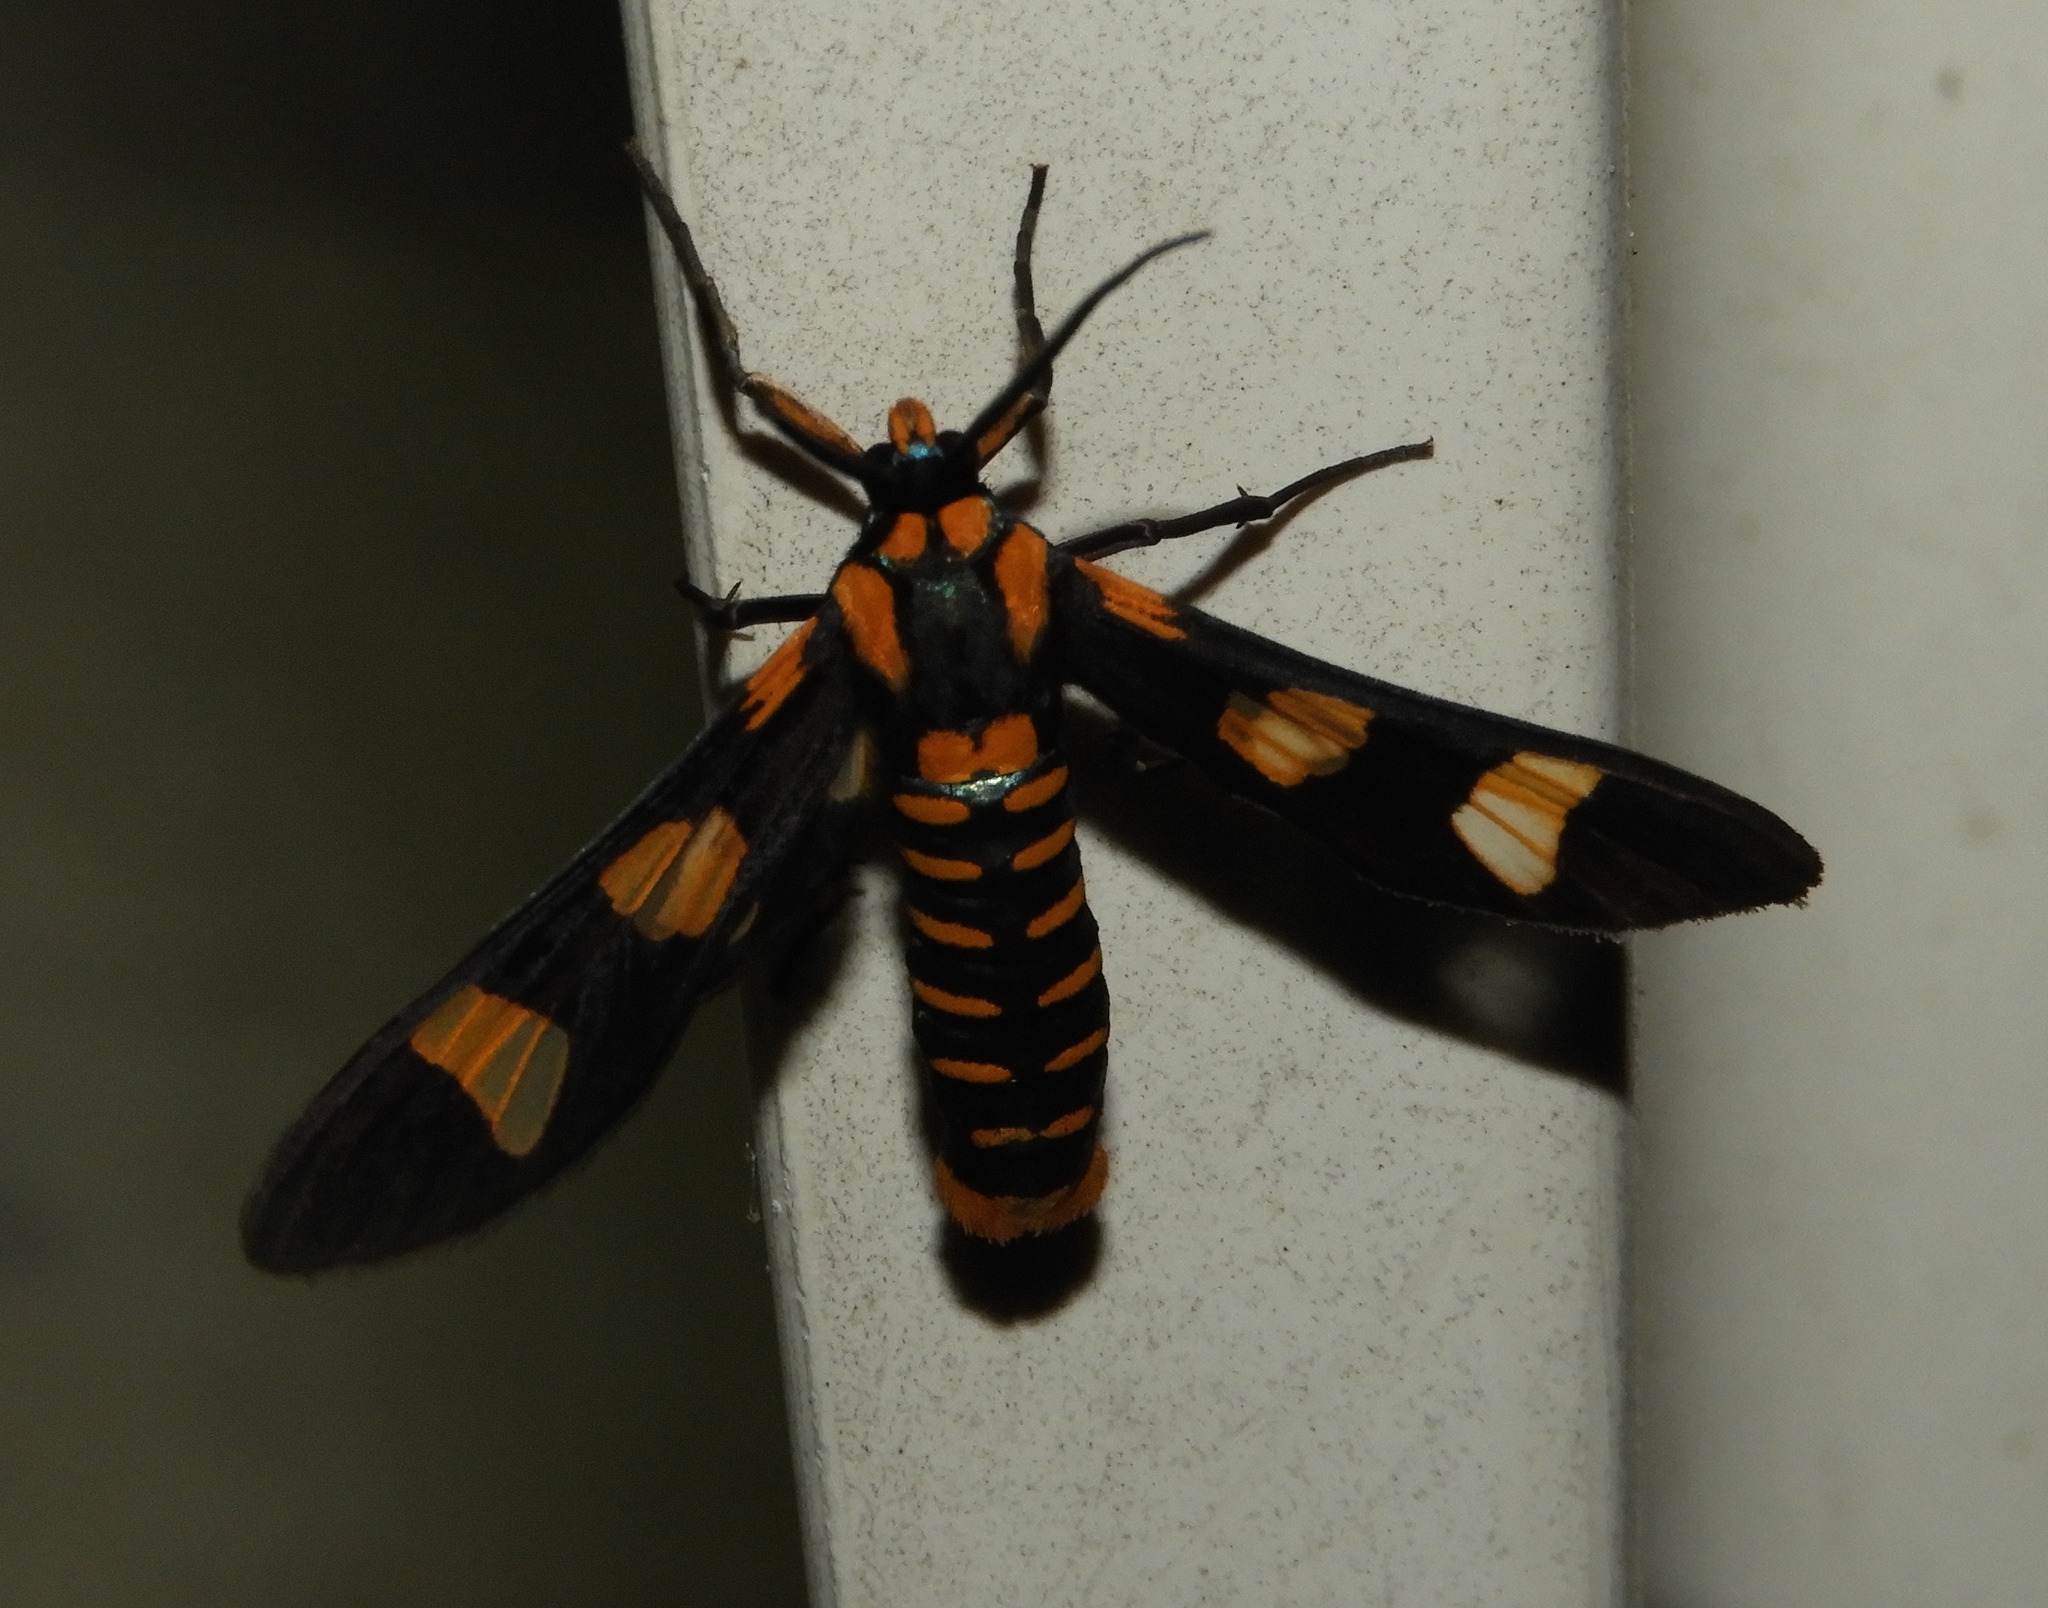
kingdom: Animalia
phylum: Arthropoda
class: Insecta
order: Lepidoptera
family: Erebidae
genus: Phoenicoprocta
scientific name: Phoenicoprocta hampsonii
